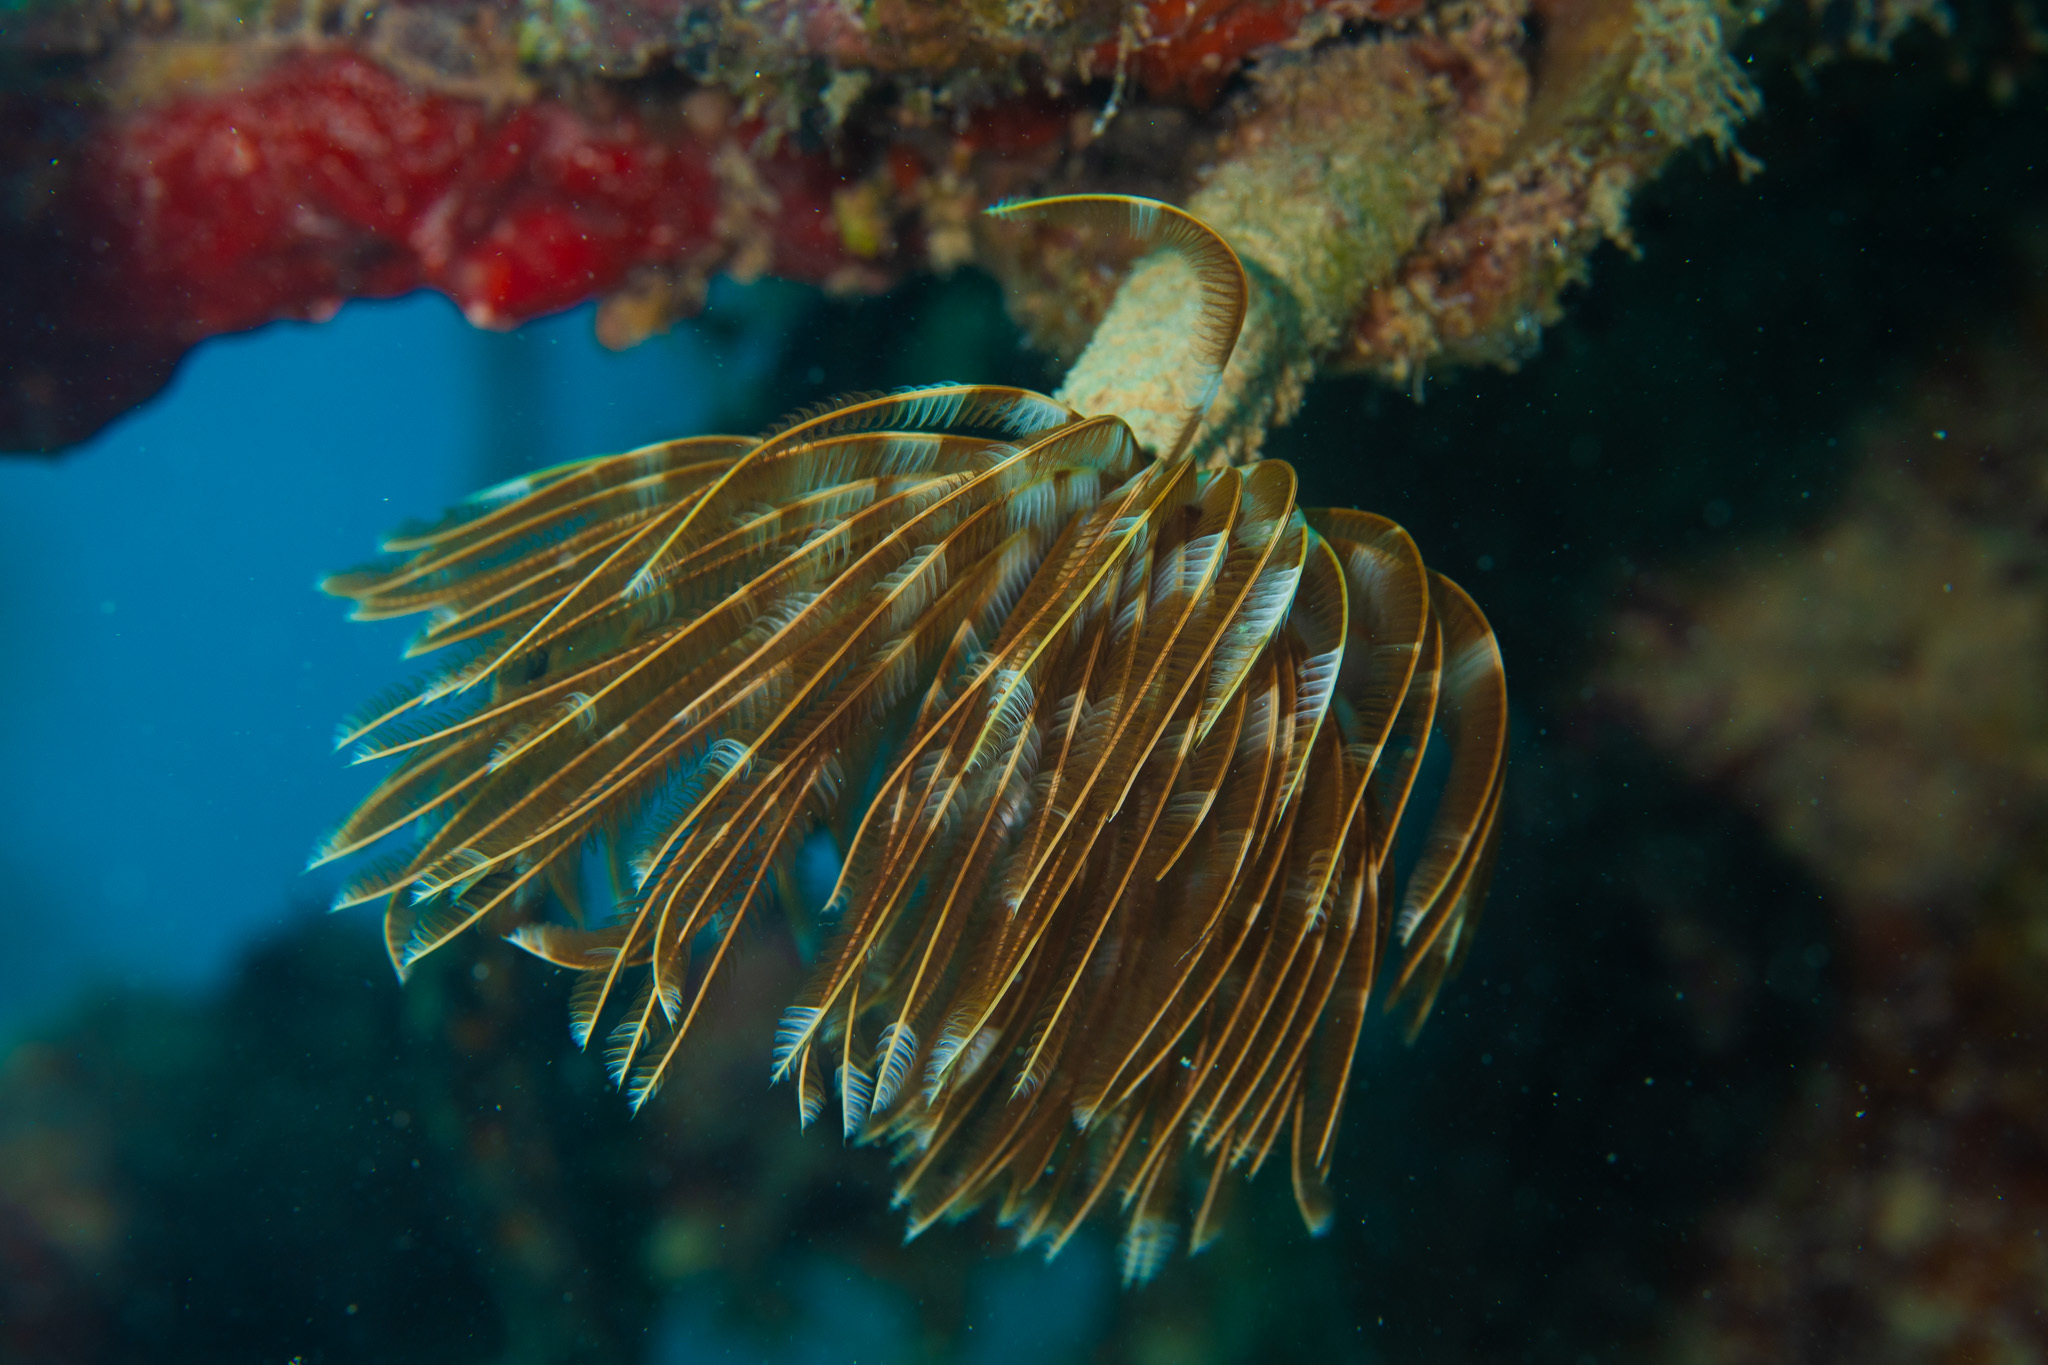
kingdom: Animalia
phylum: Annelida
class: Polychaeta
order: Sabellida
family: Sabellidae
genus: Sabellastarte
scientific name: Sabellastarte magnifica
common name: Giant feather-duster worm
